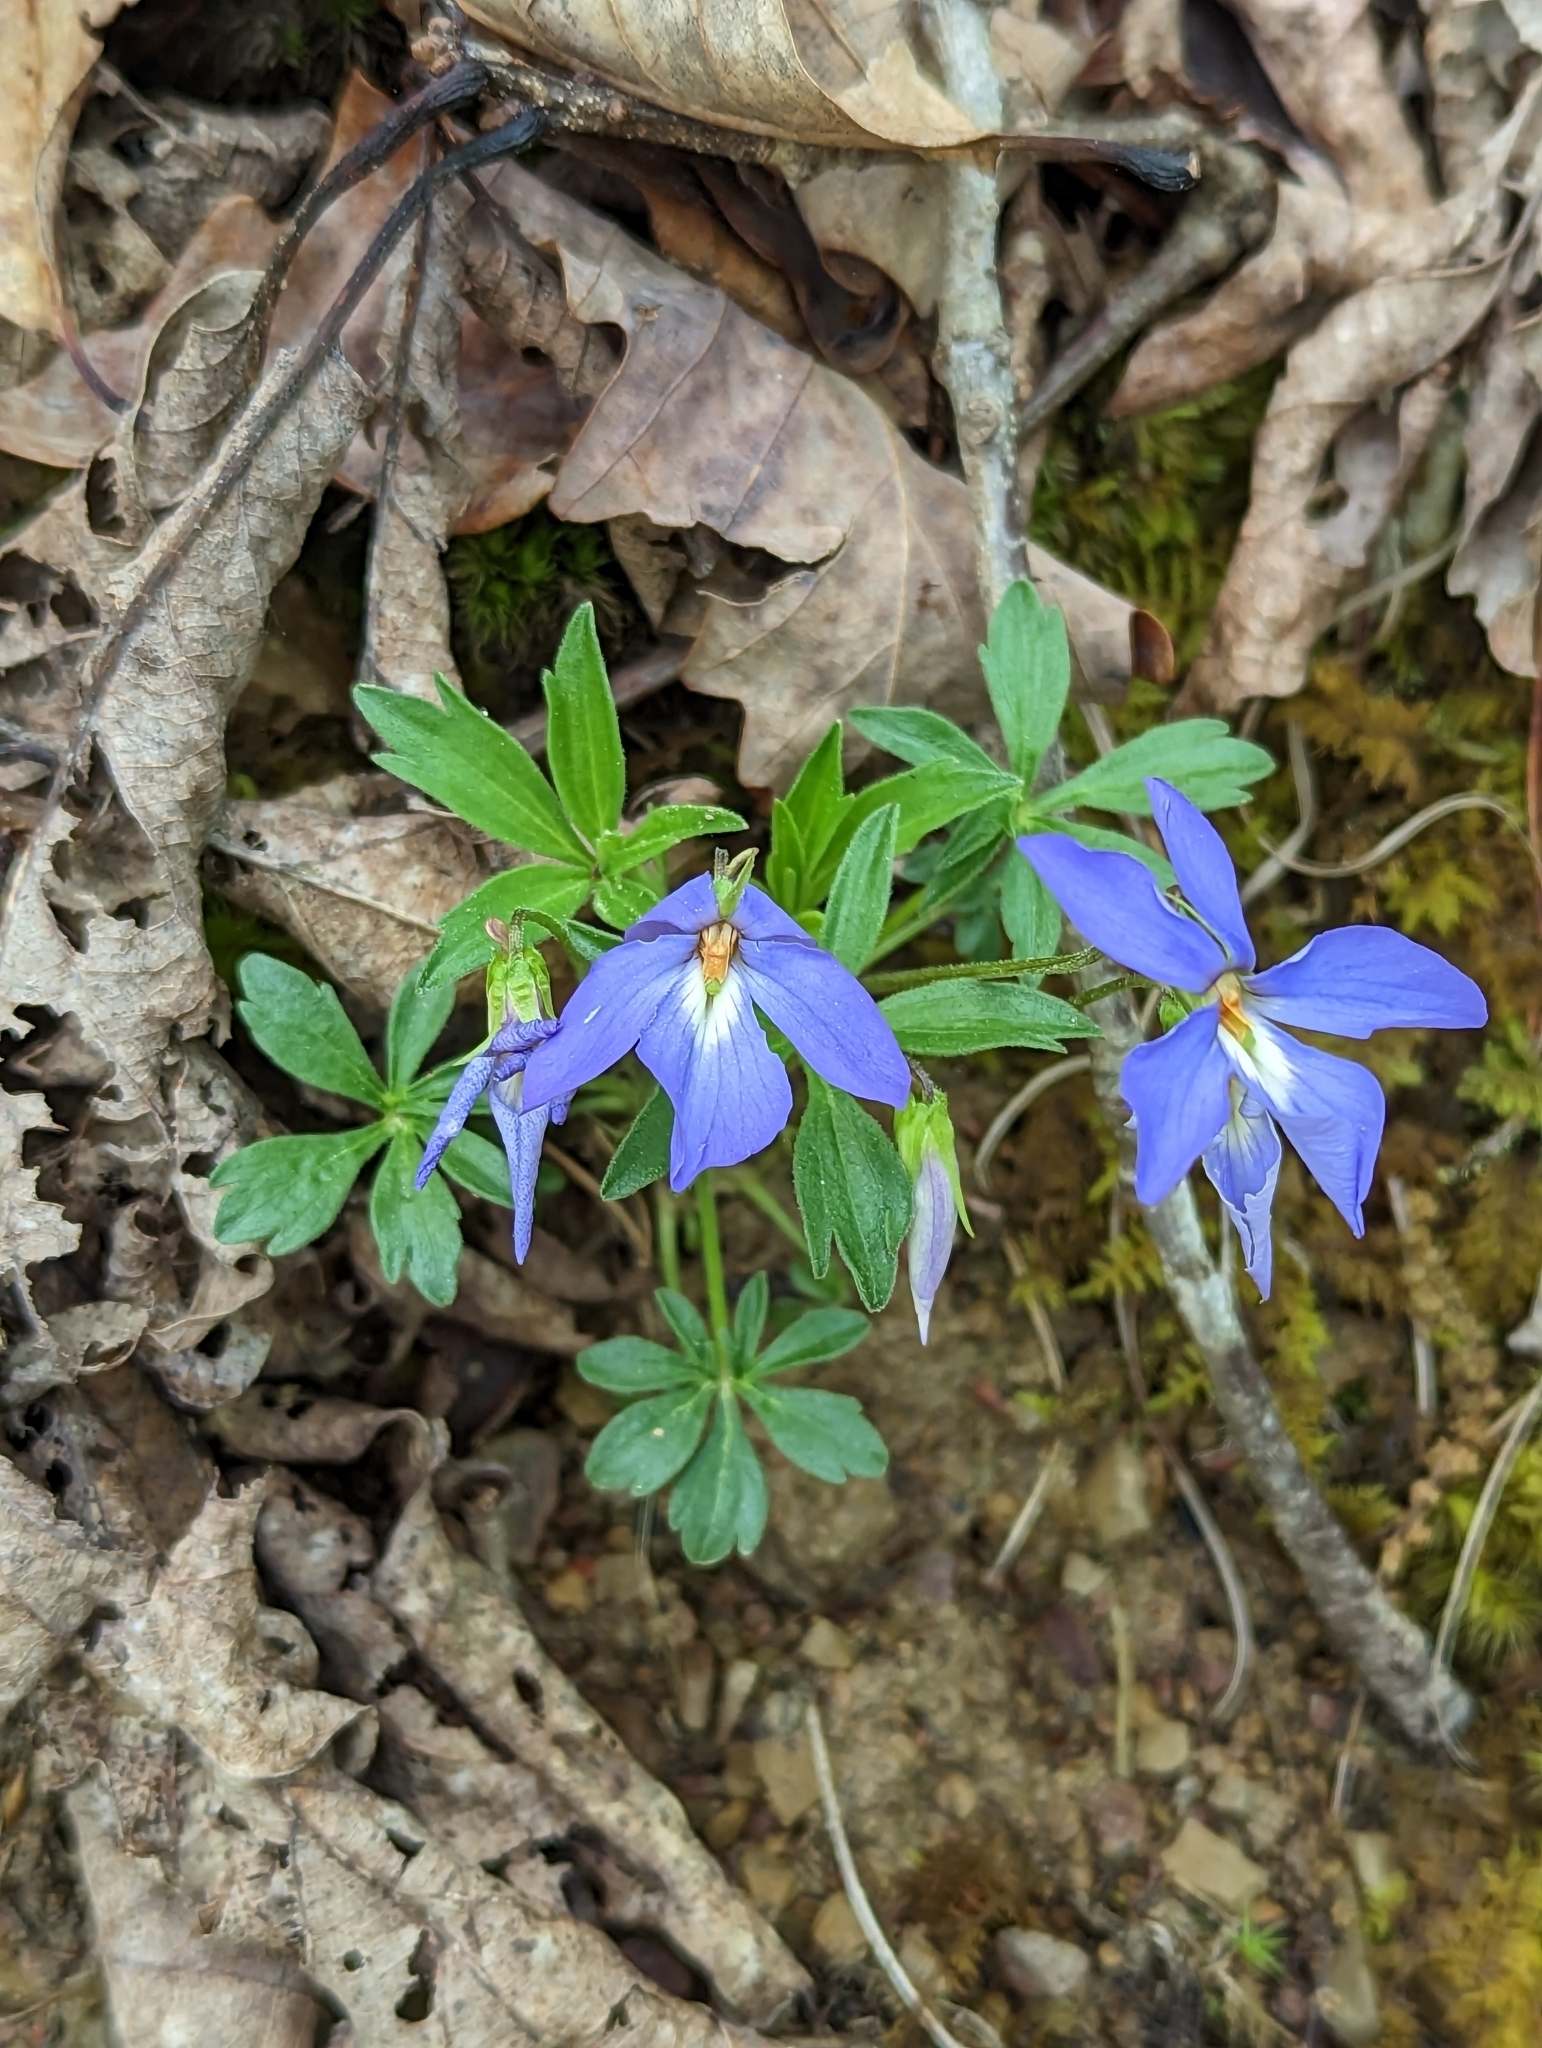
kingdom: Plantae
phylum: Tracheophyta
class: Magnoliopsida
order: Malpighiales
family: Violaceae
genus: Viola
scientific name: Viola pedata
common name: Pansy violet
